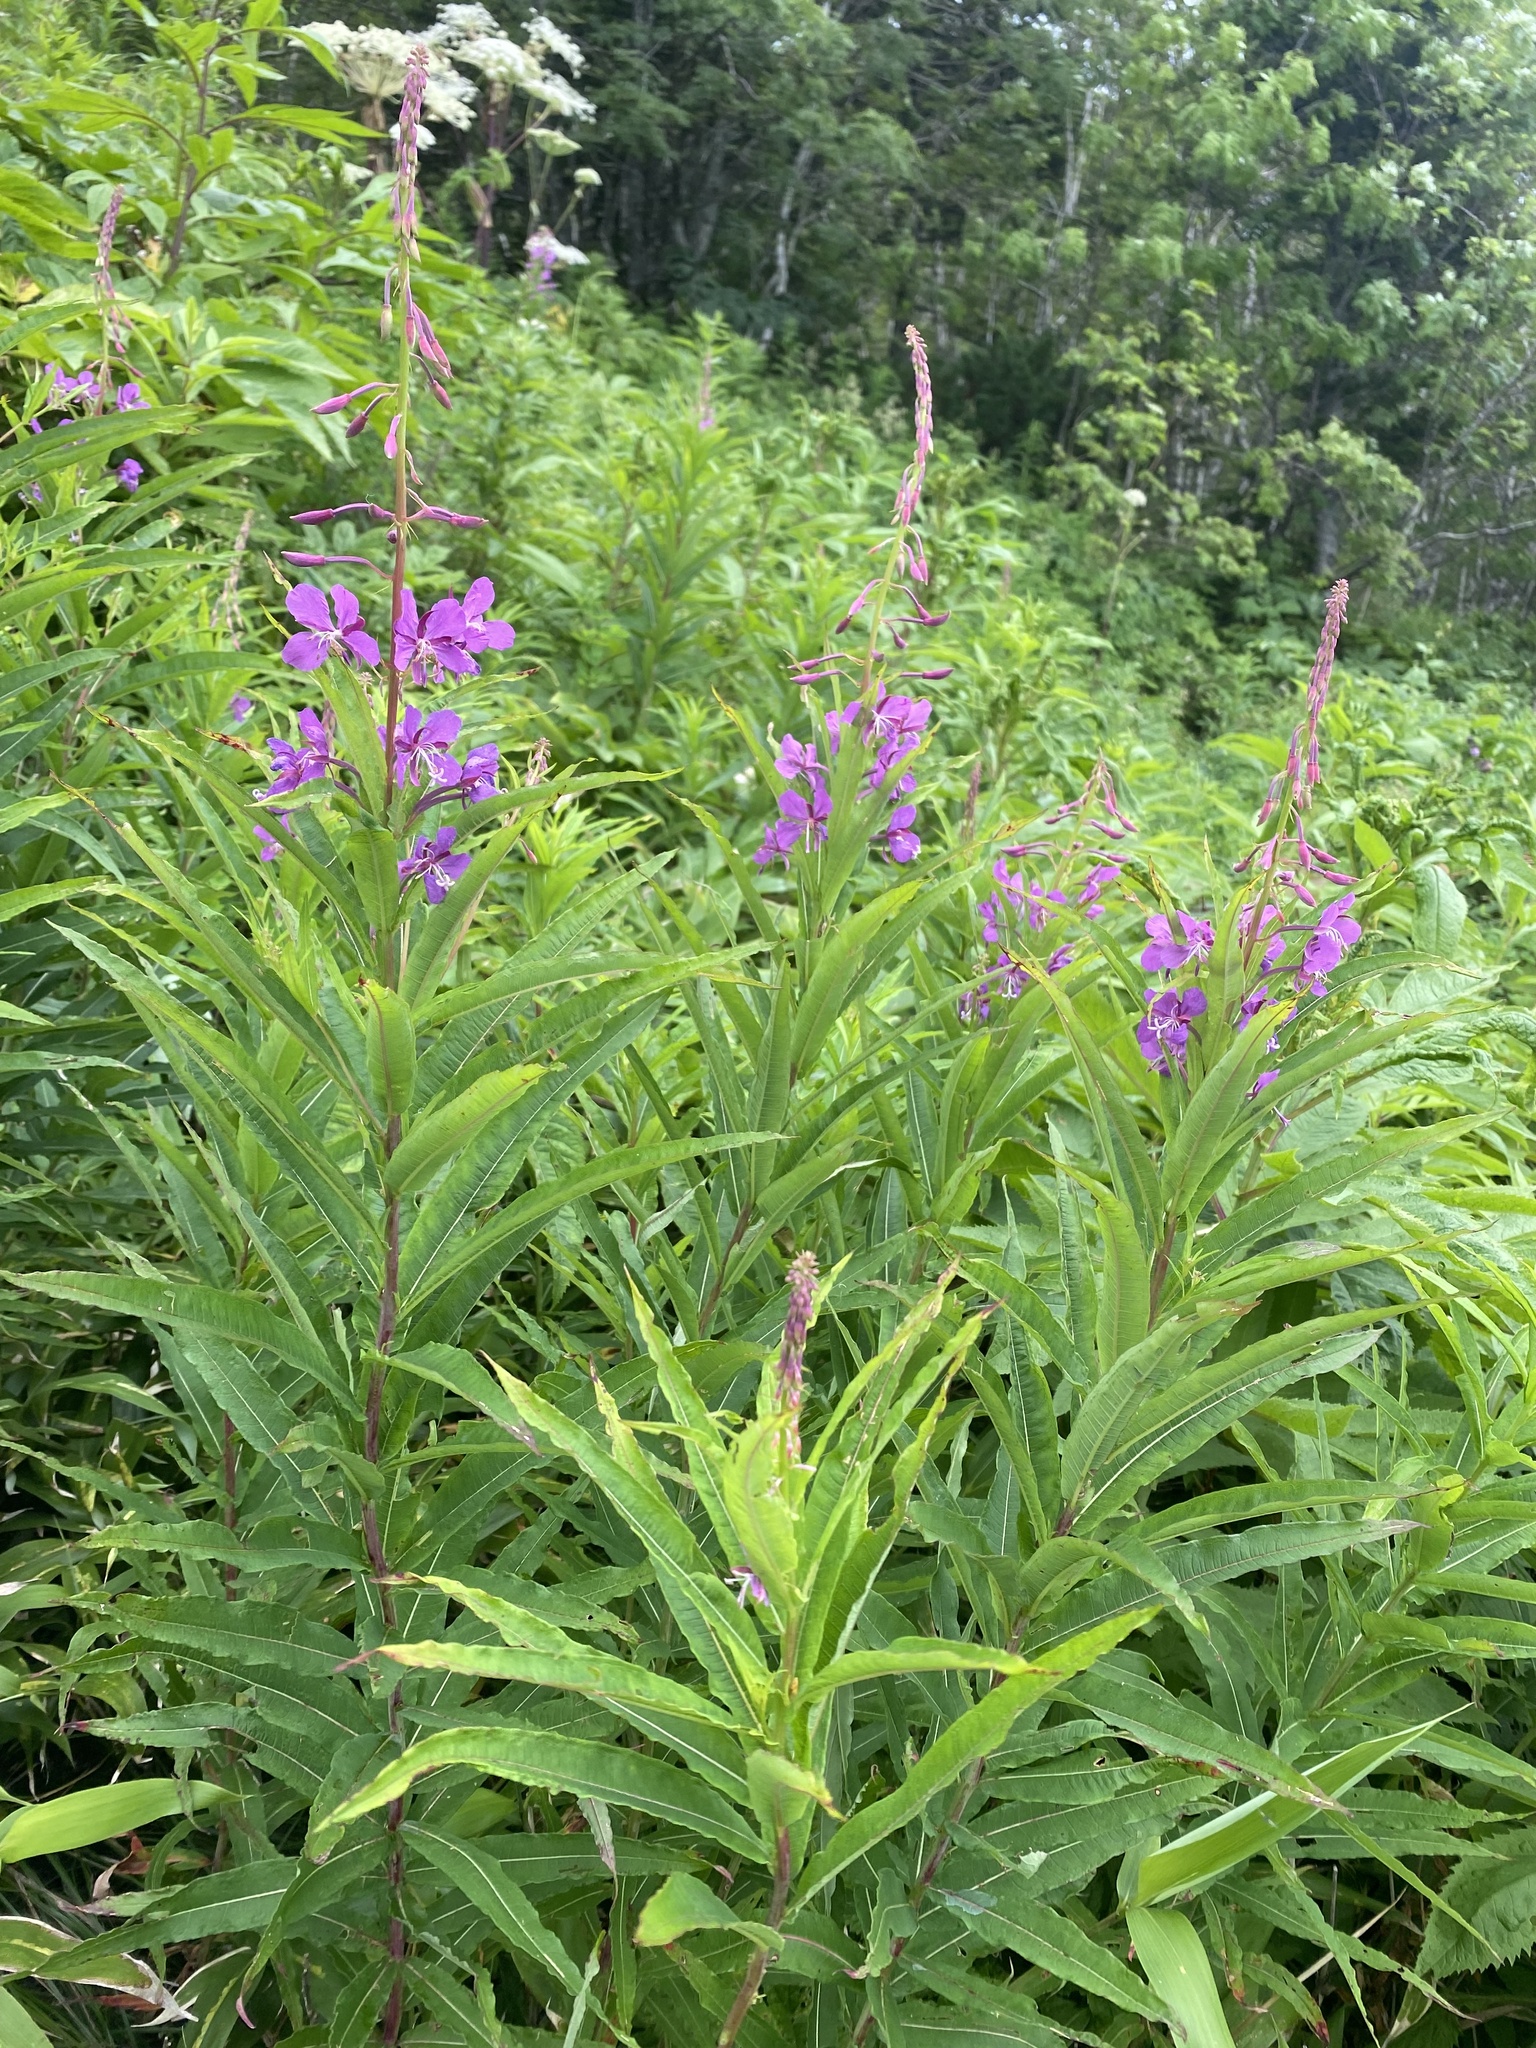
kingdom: Plantae
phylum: Tracheophyta
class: Magnoliopsida
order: Myrtales
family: Onagraceae
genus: Chamaenerion
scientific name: Chamaenerion angustifolium
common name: Fireweed
